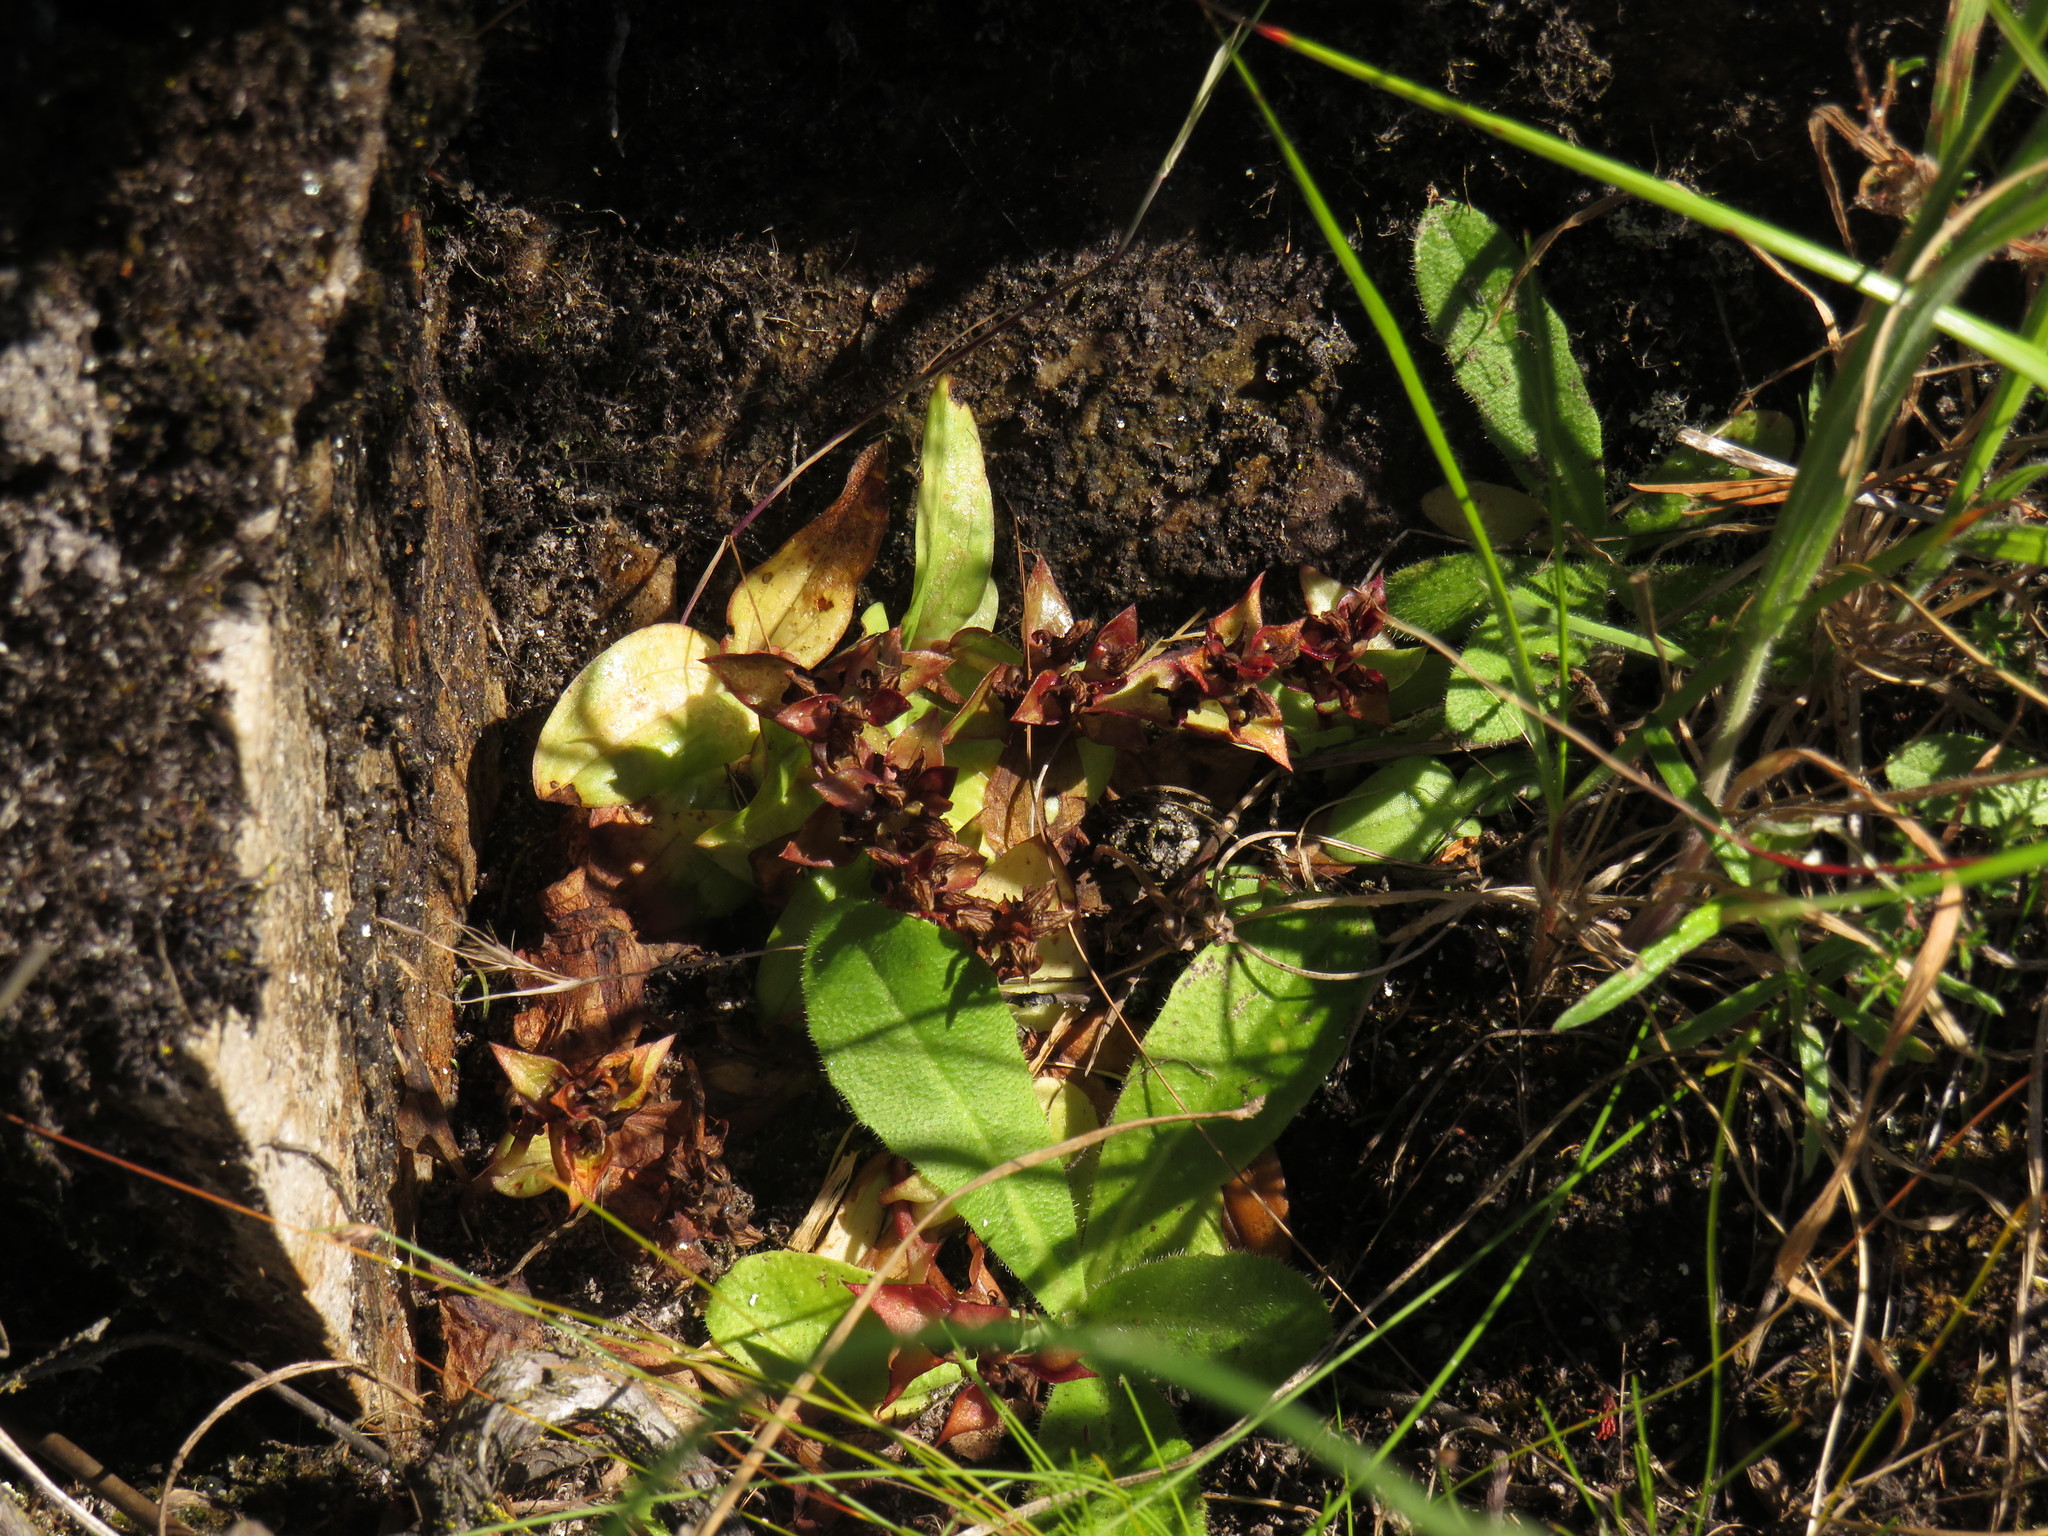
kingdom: Plantae
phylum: Tracheophyta
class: Liliopsida
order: Asparagales
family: Orchidaceae
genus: Satyrium
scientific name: Satyrium bracteatum
